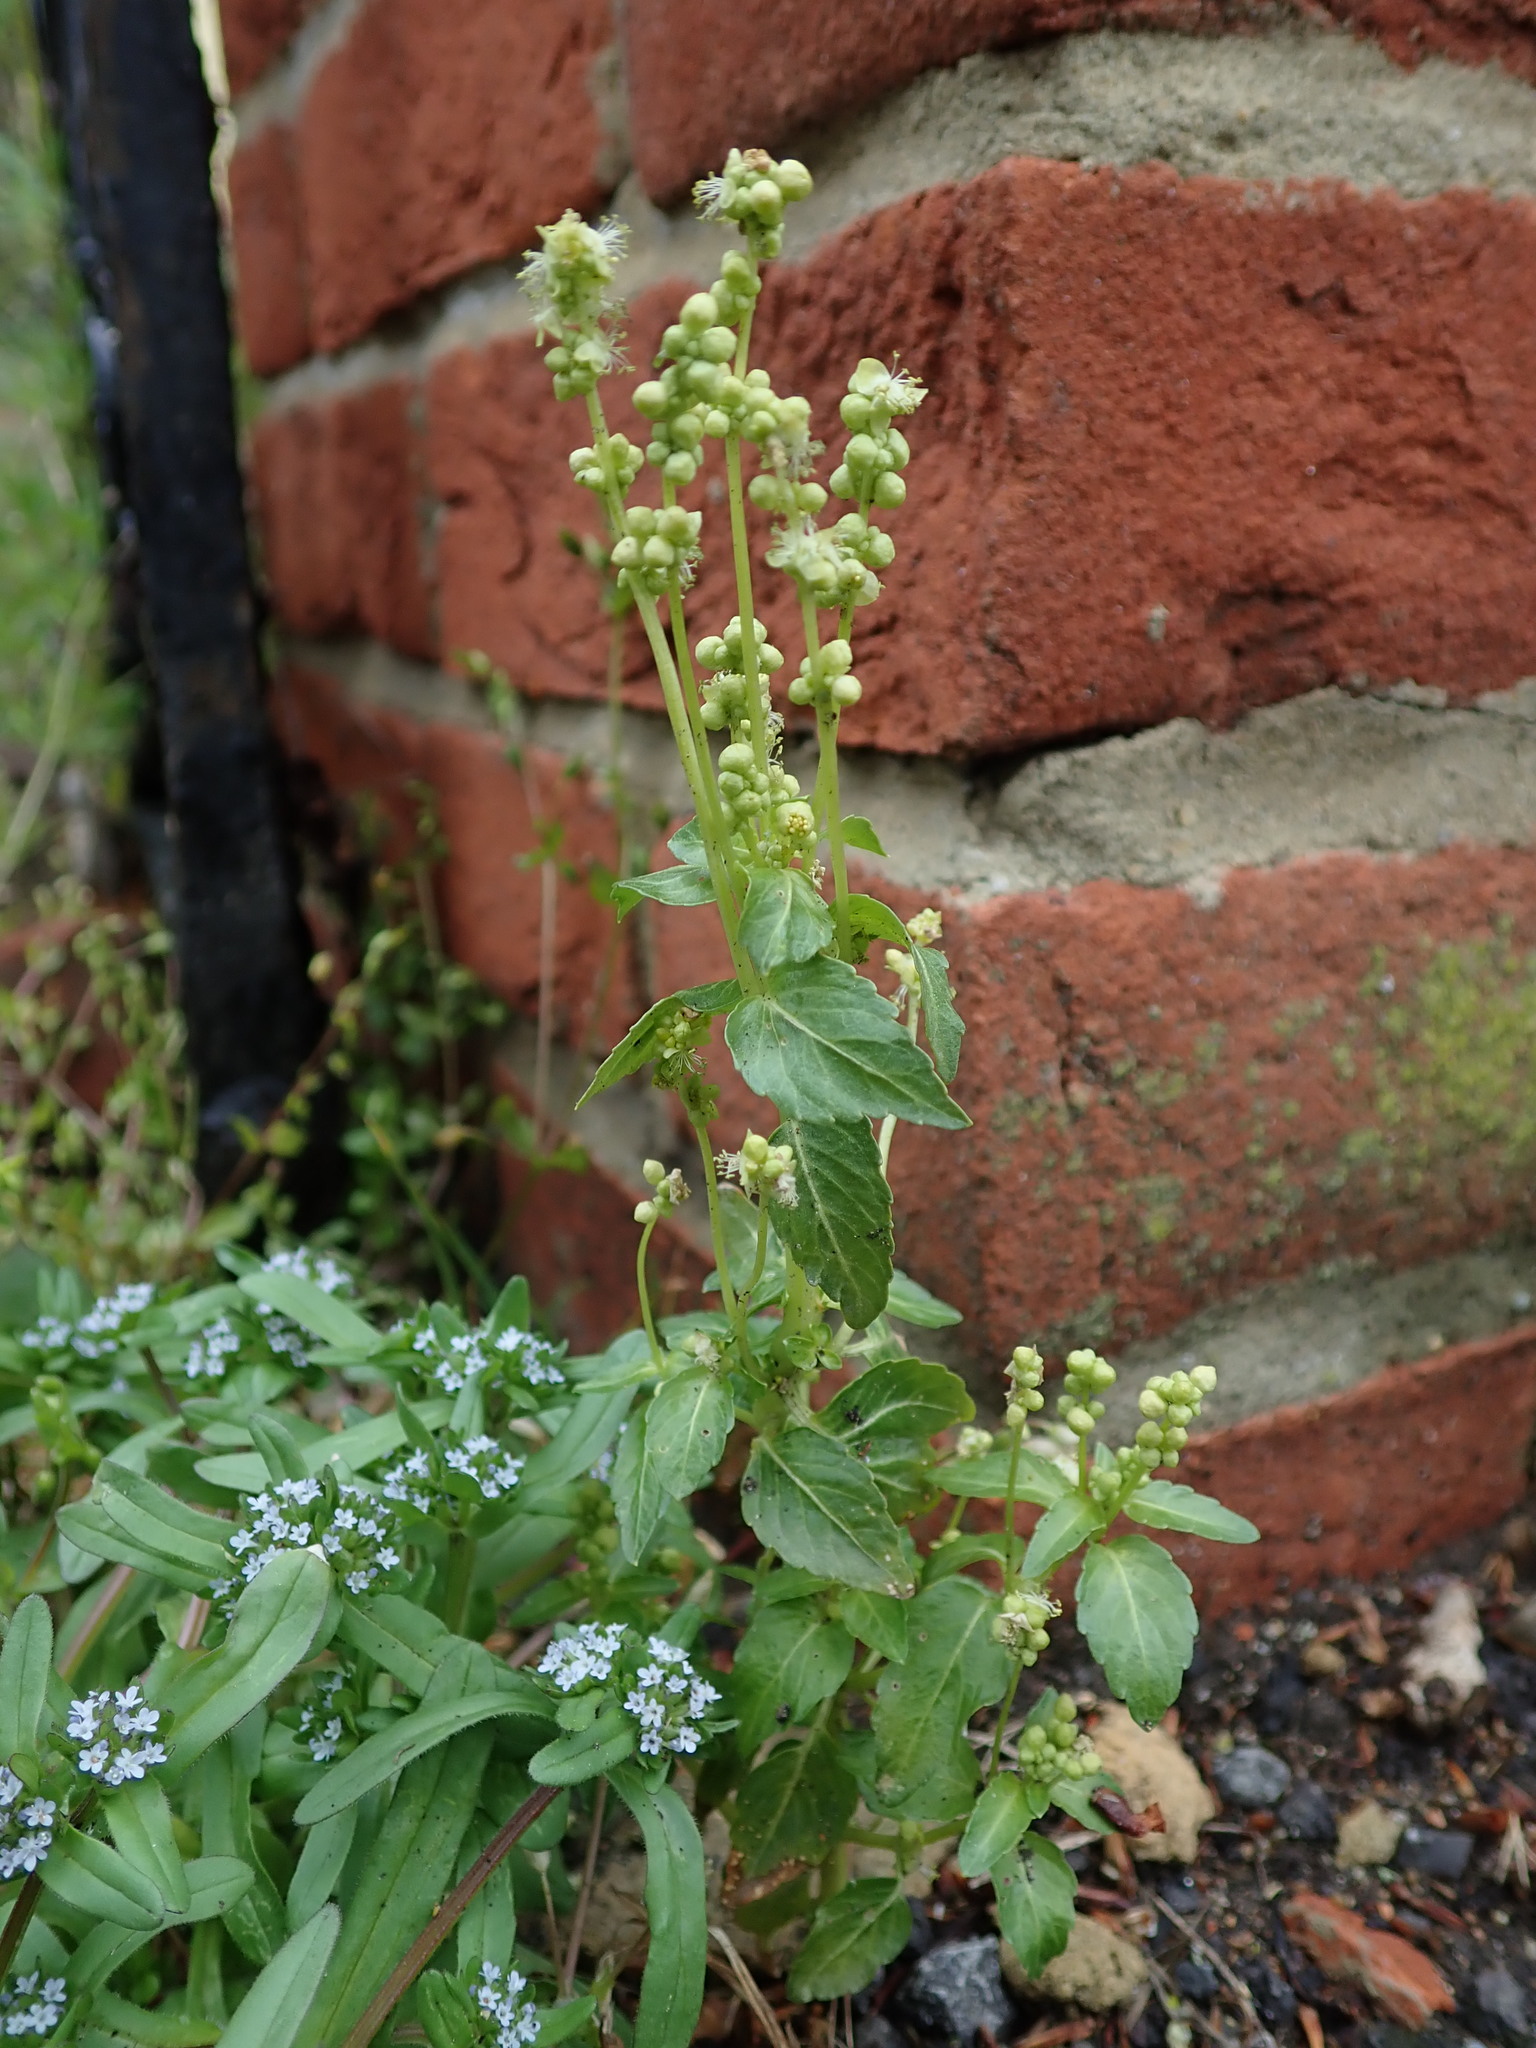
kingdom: Plantae
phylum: Tracheophyta
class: Magnoliopsida
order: Malpighiales
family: Euphorbiaceae
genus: Mercurialis
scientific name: Mercurialis annua
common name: Annual mercury
